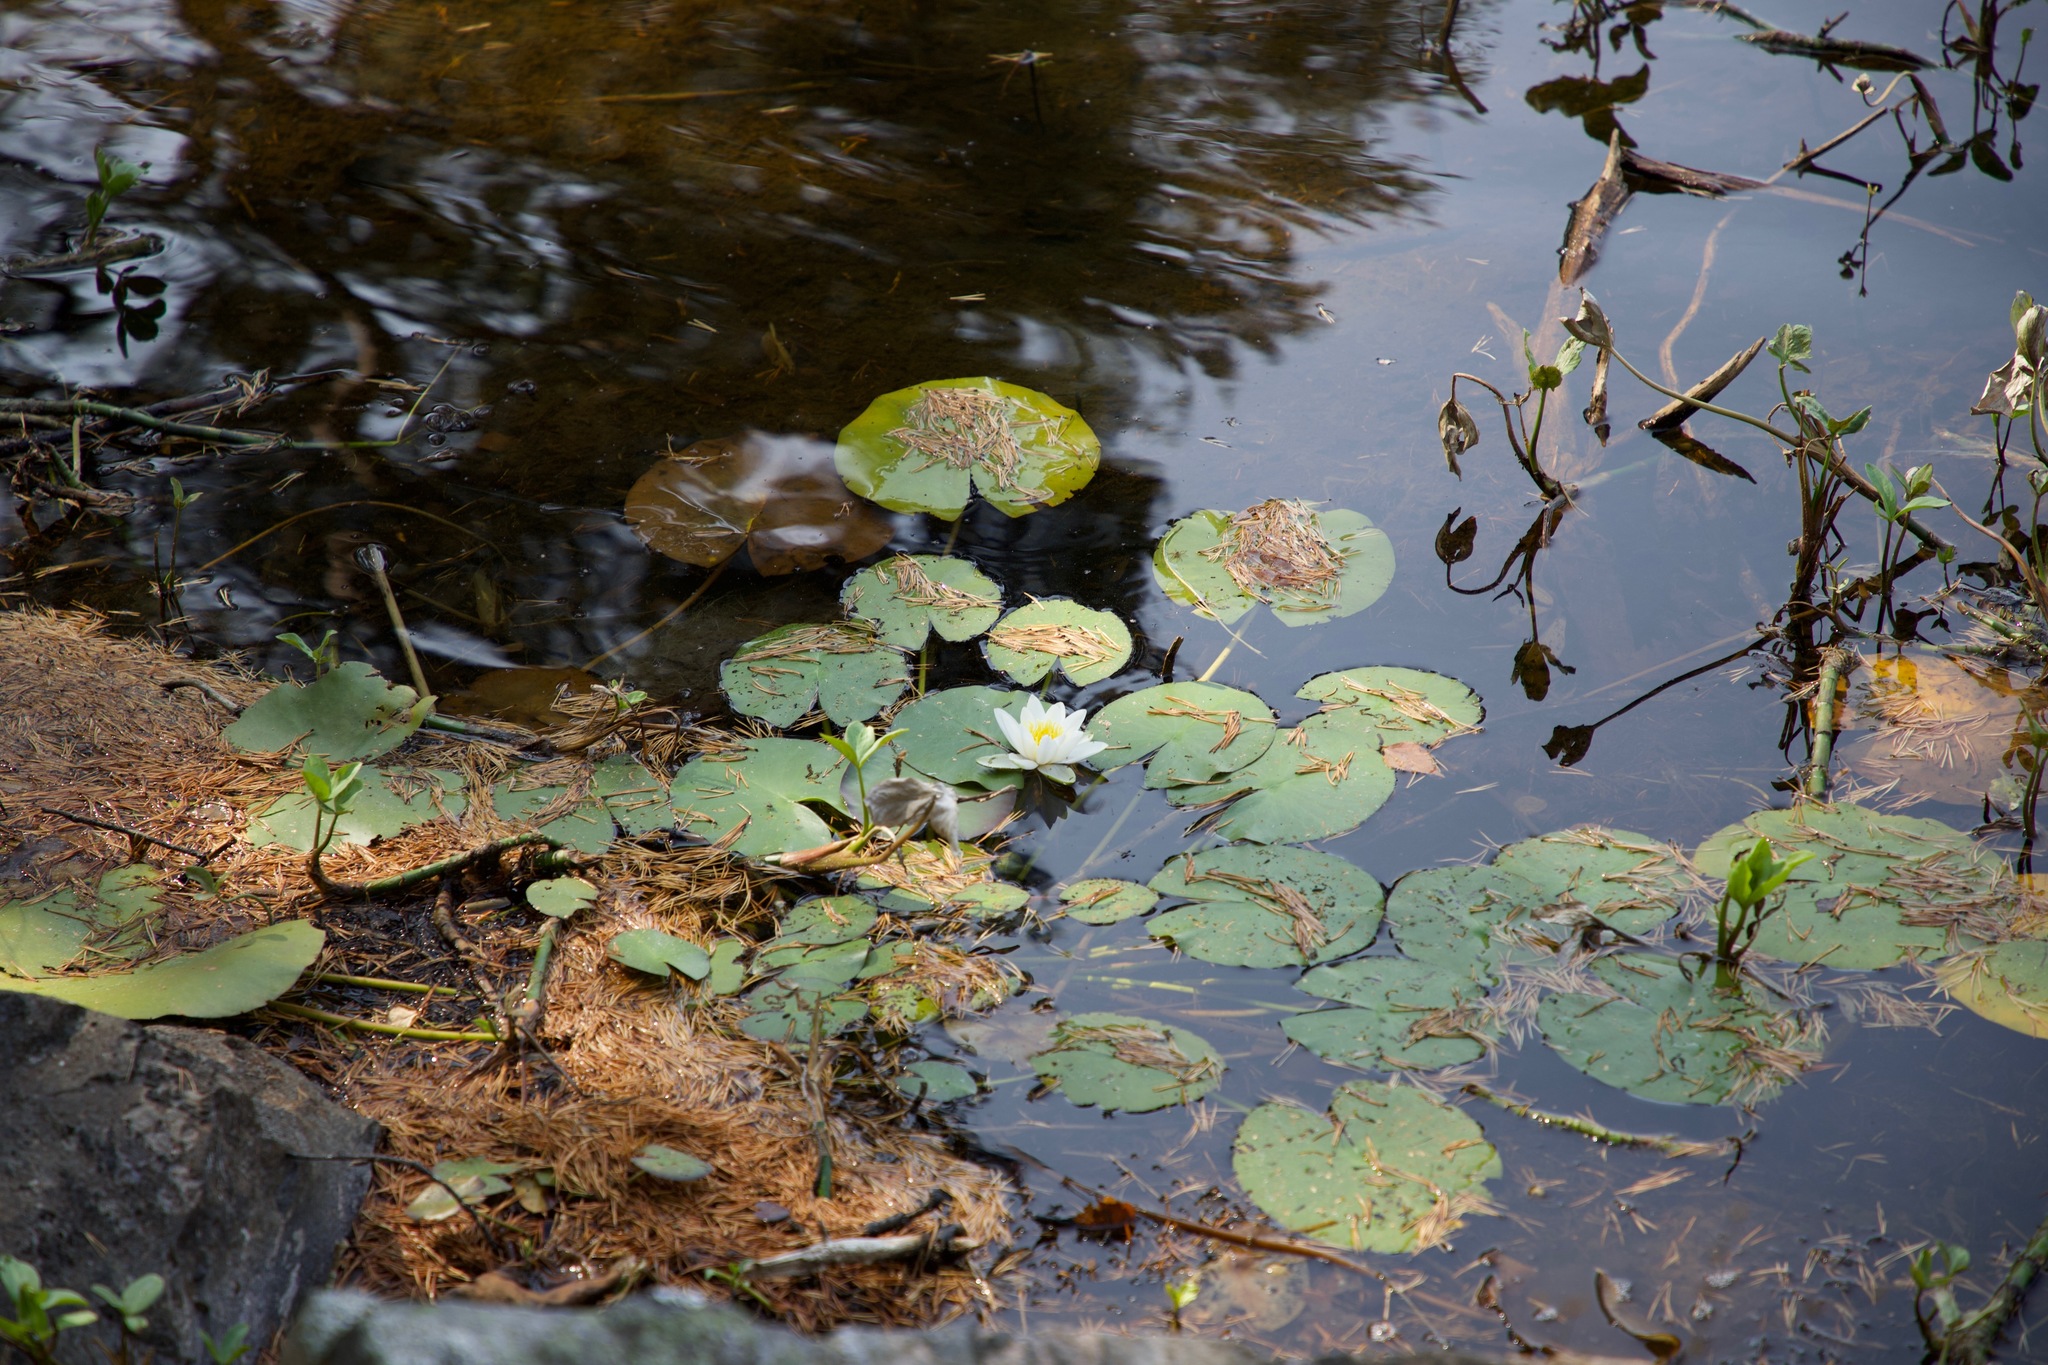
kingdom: Plantae
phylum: Tracheophyta
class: Magnoliopsida
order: Nymphaeales
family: Nymphaeaceae
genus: Nymphaea
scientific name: Nymphaea alba
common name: White water-lily
